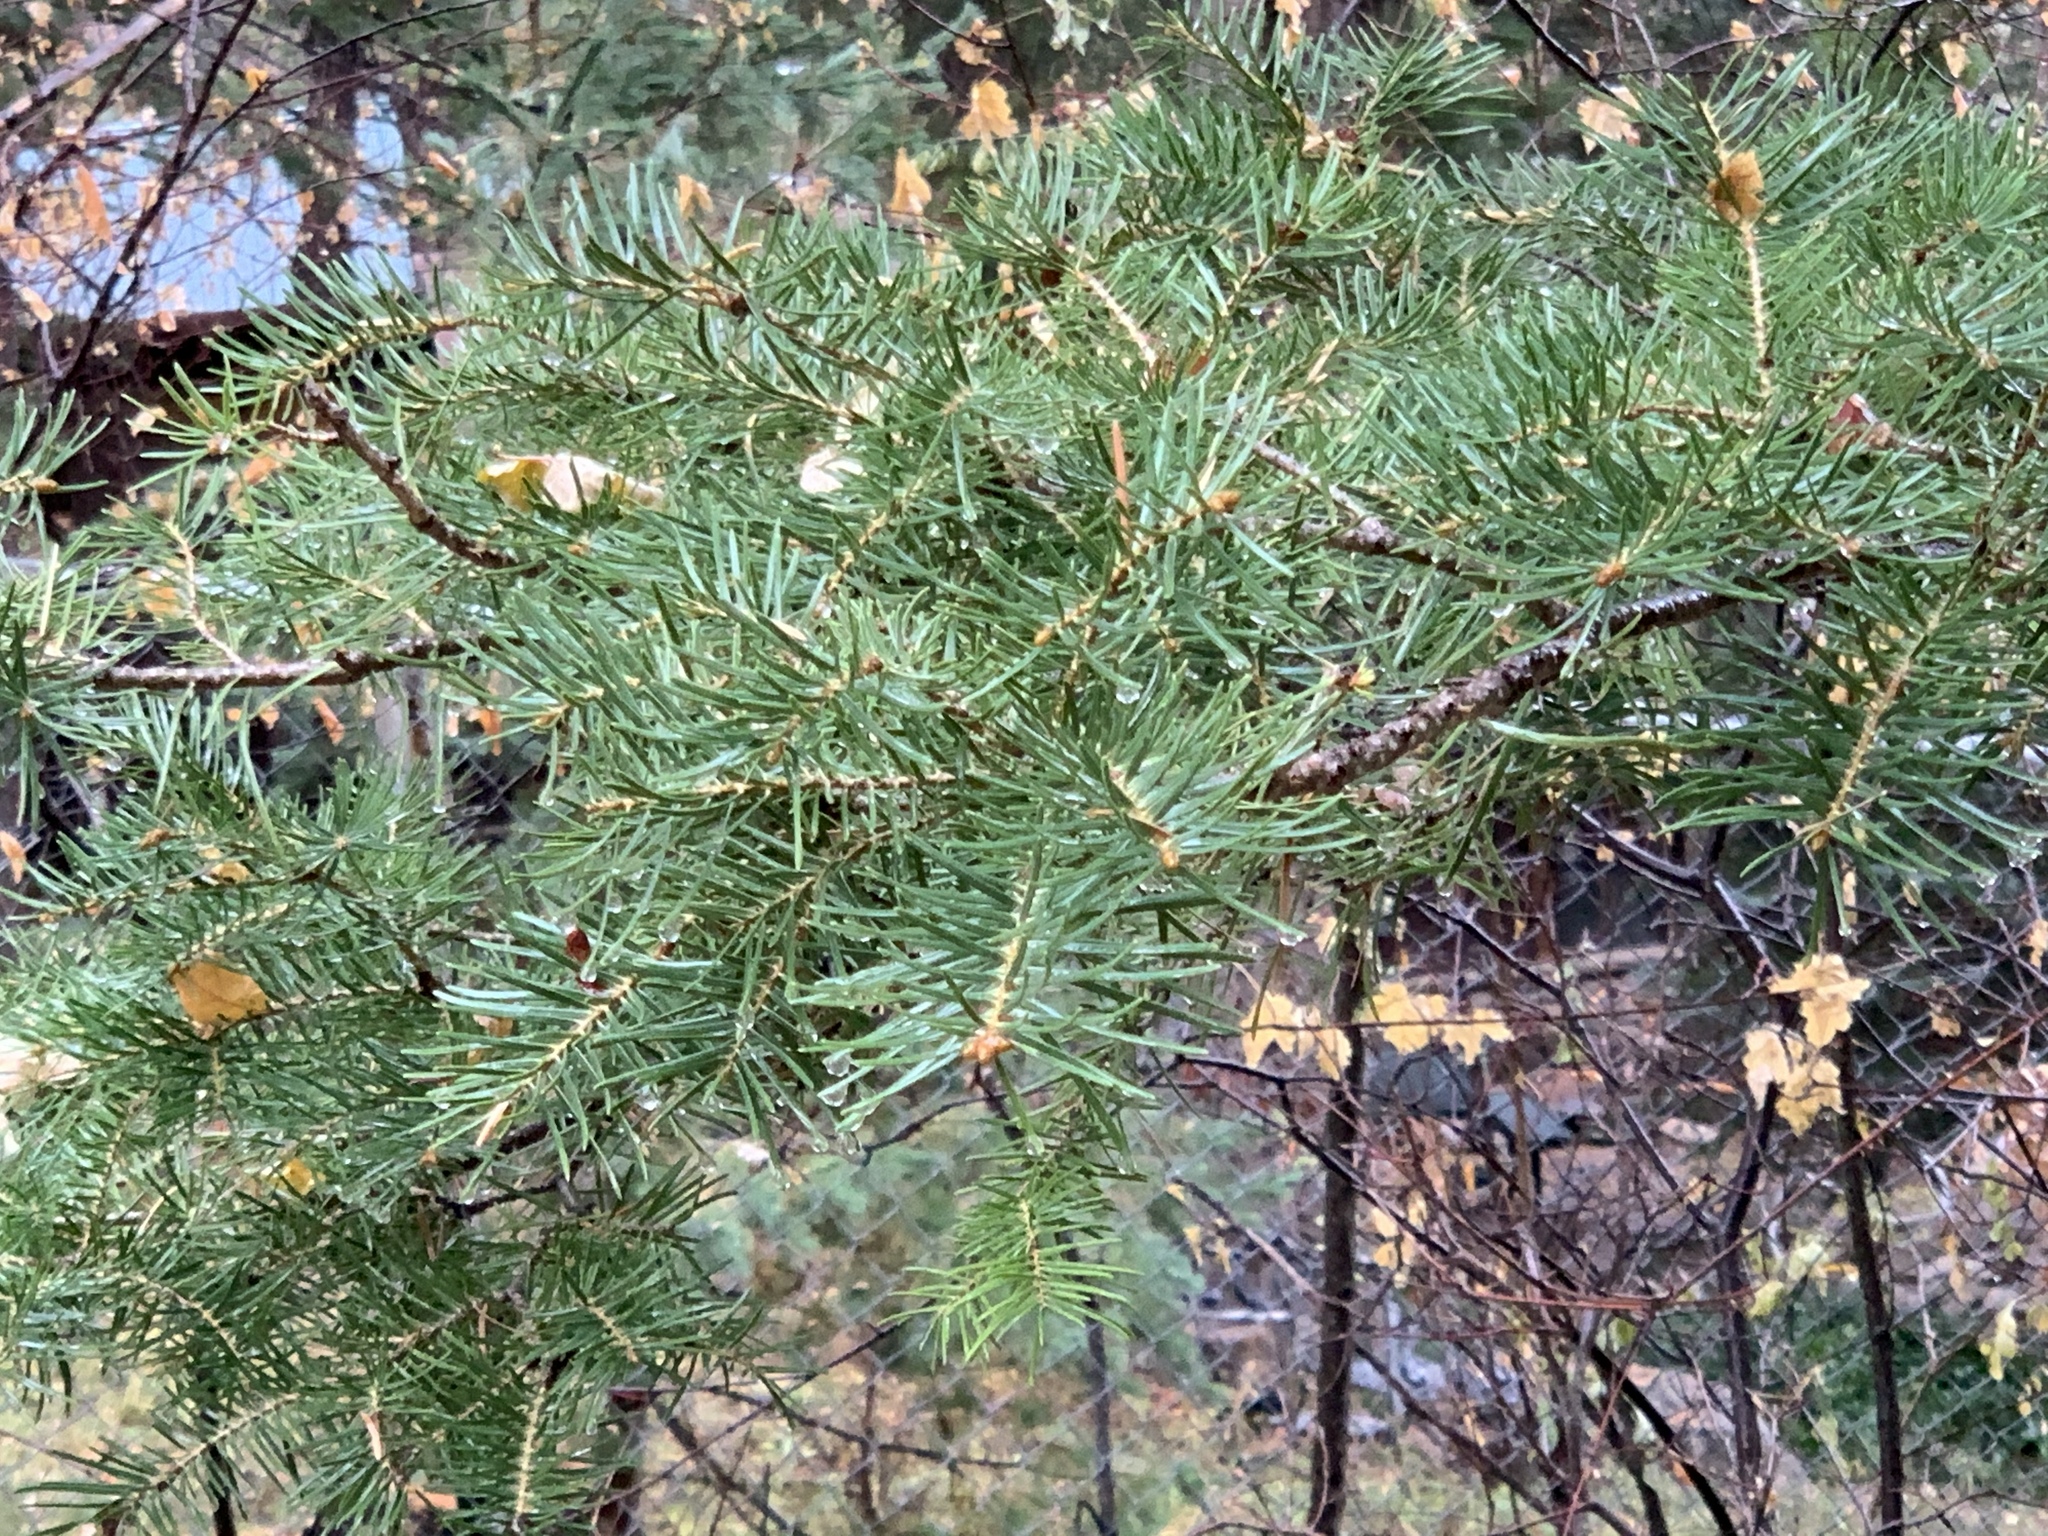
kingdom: Plantae
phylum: Tracheophyta
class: Pinopsida
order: Pinales
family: Pinaceae
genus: Abies
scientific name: Abies concolor
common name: Colorado fir
